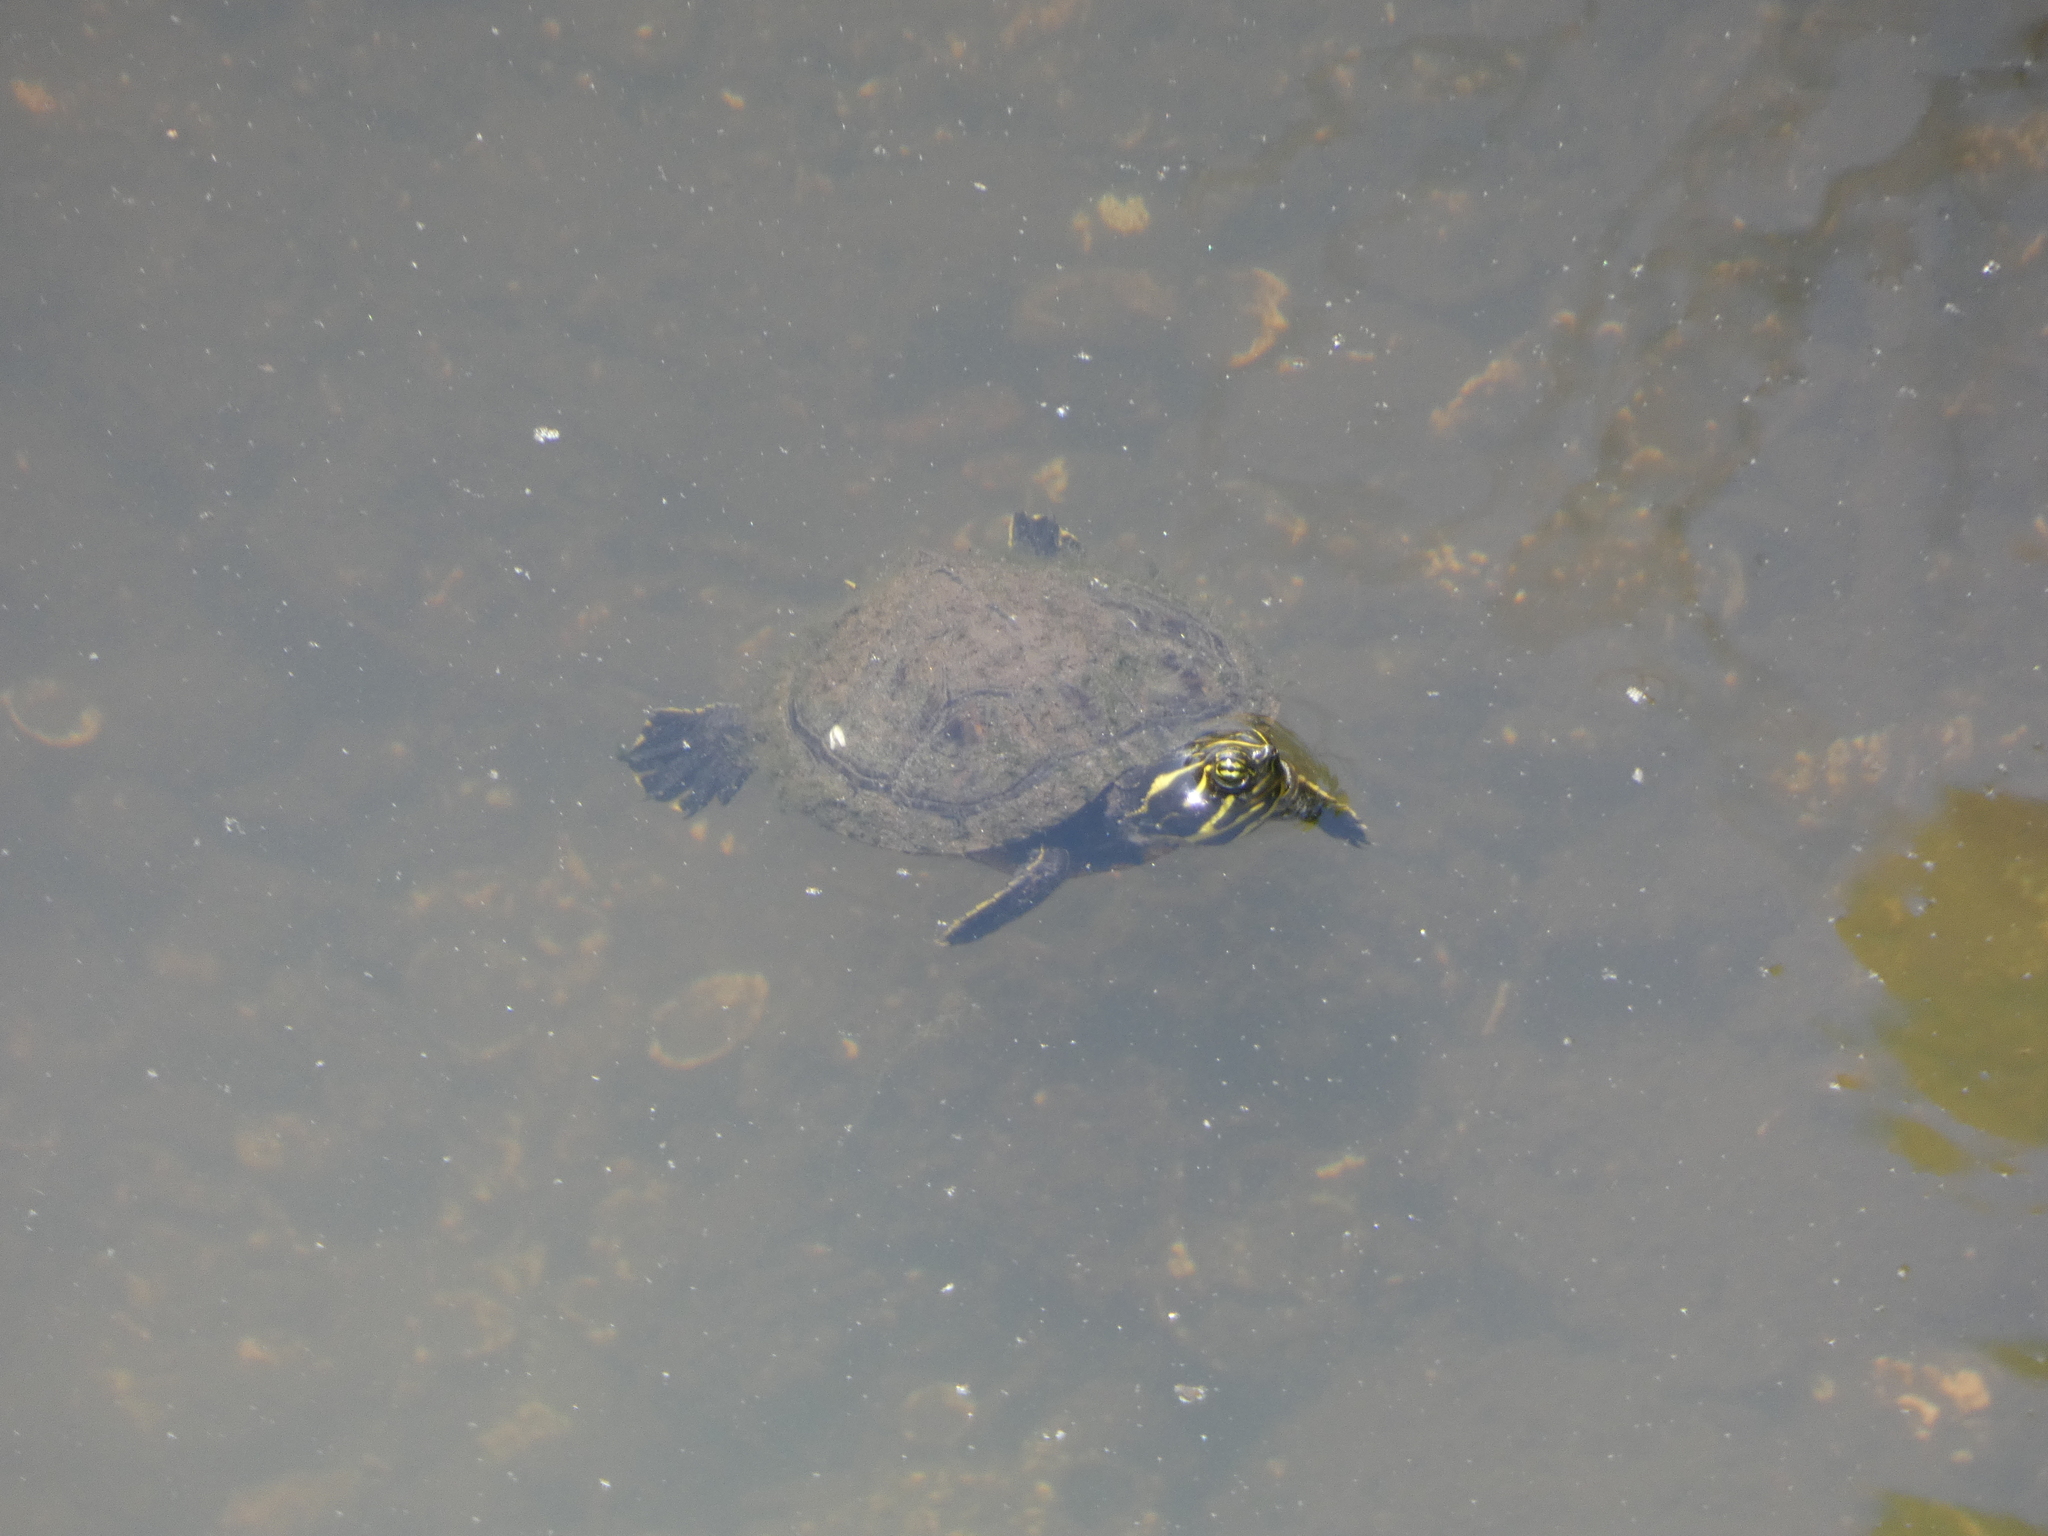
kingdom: Animalia
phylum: Chordata
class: Testudines
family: Emydidae
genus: Trachemys
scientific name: Trachemys scripta
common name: Slider
